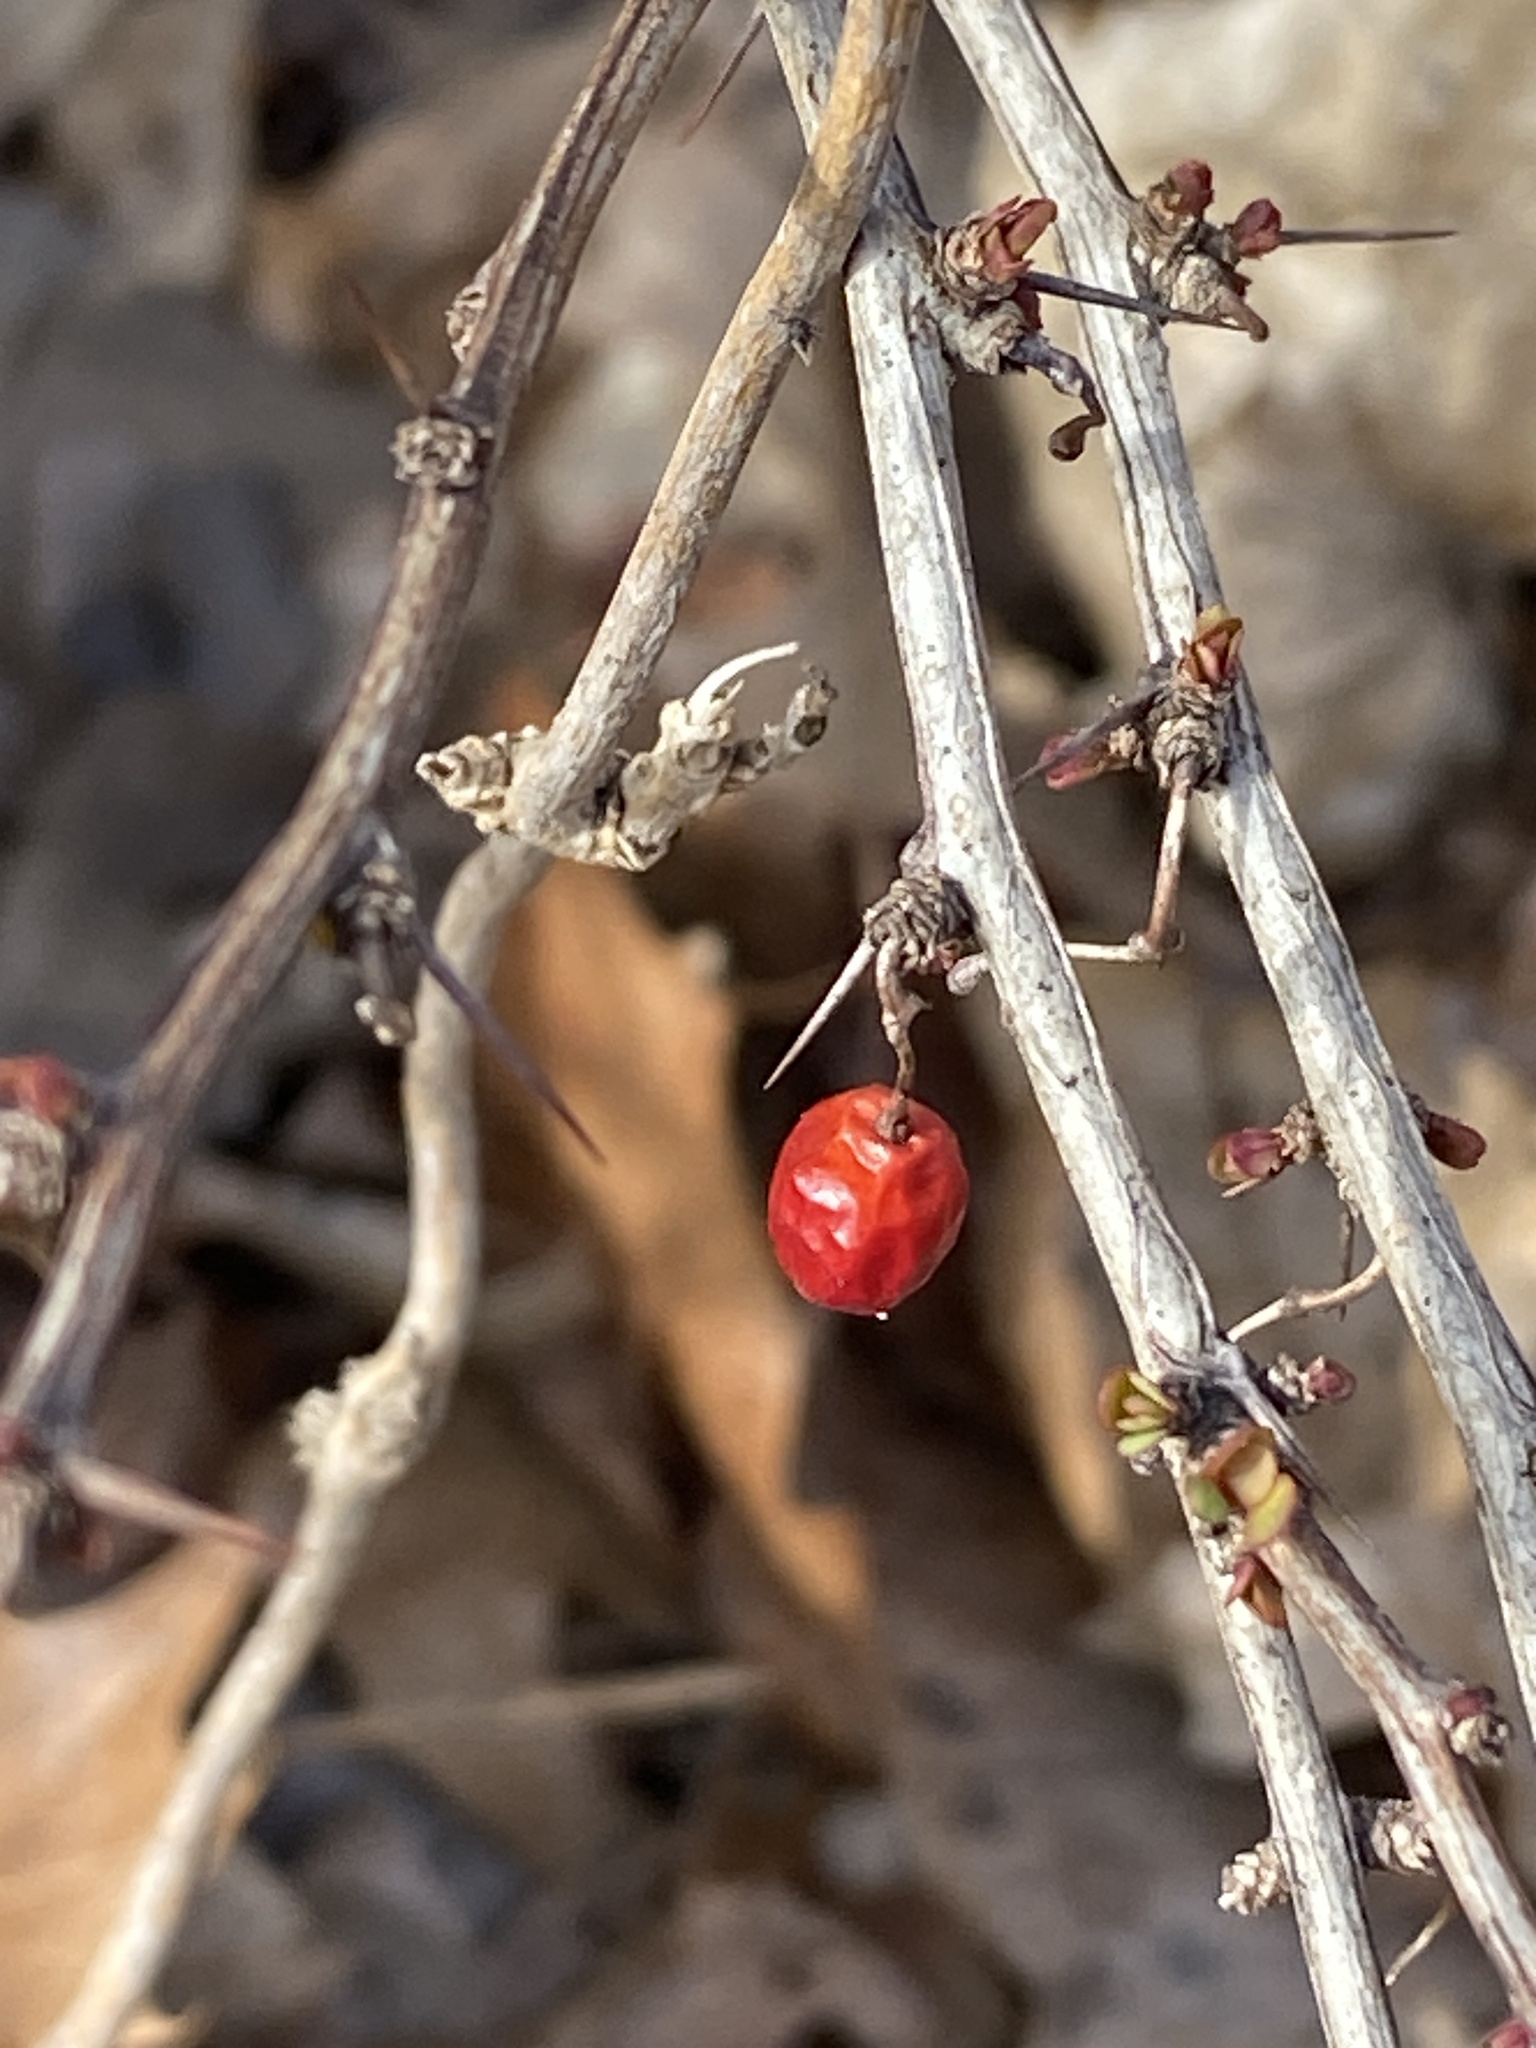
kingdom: Plantae
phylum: Tracheophyta
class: Magnoliopsida
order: Ranunculales
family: Berberidaceae
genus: Berberis
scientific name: Berberis thunbergii
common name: Japanese barberry
